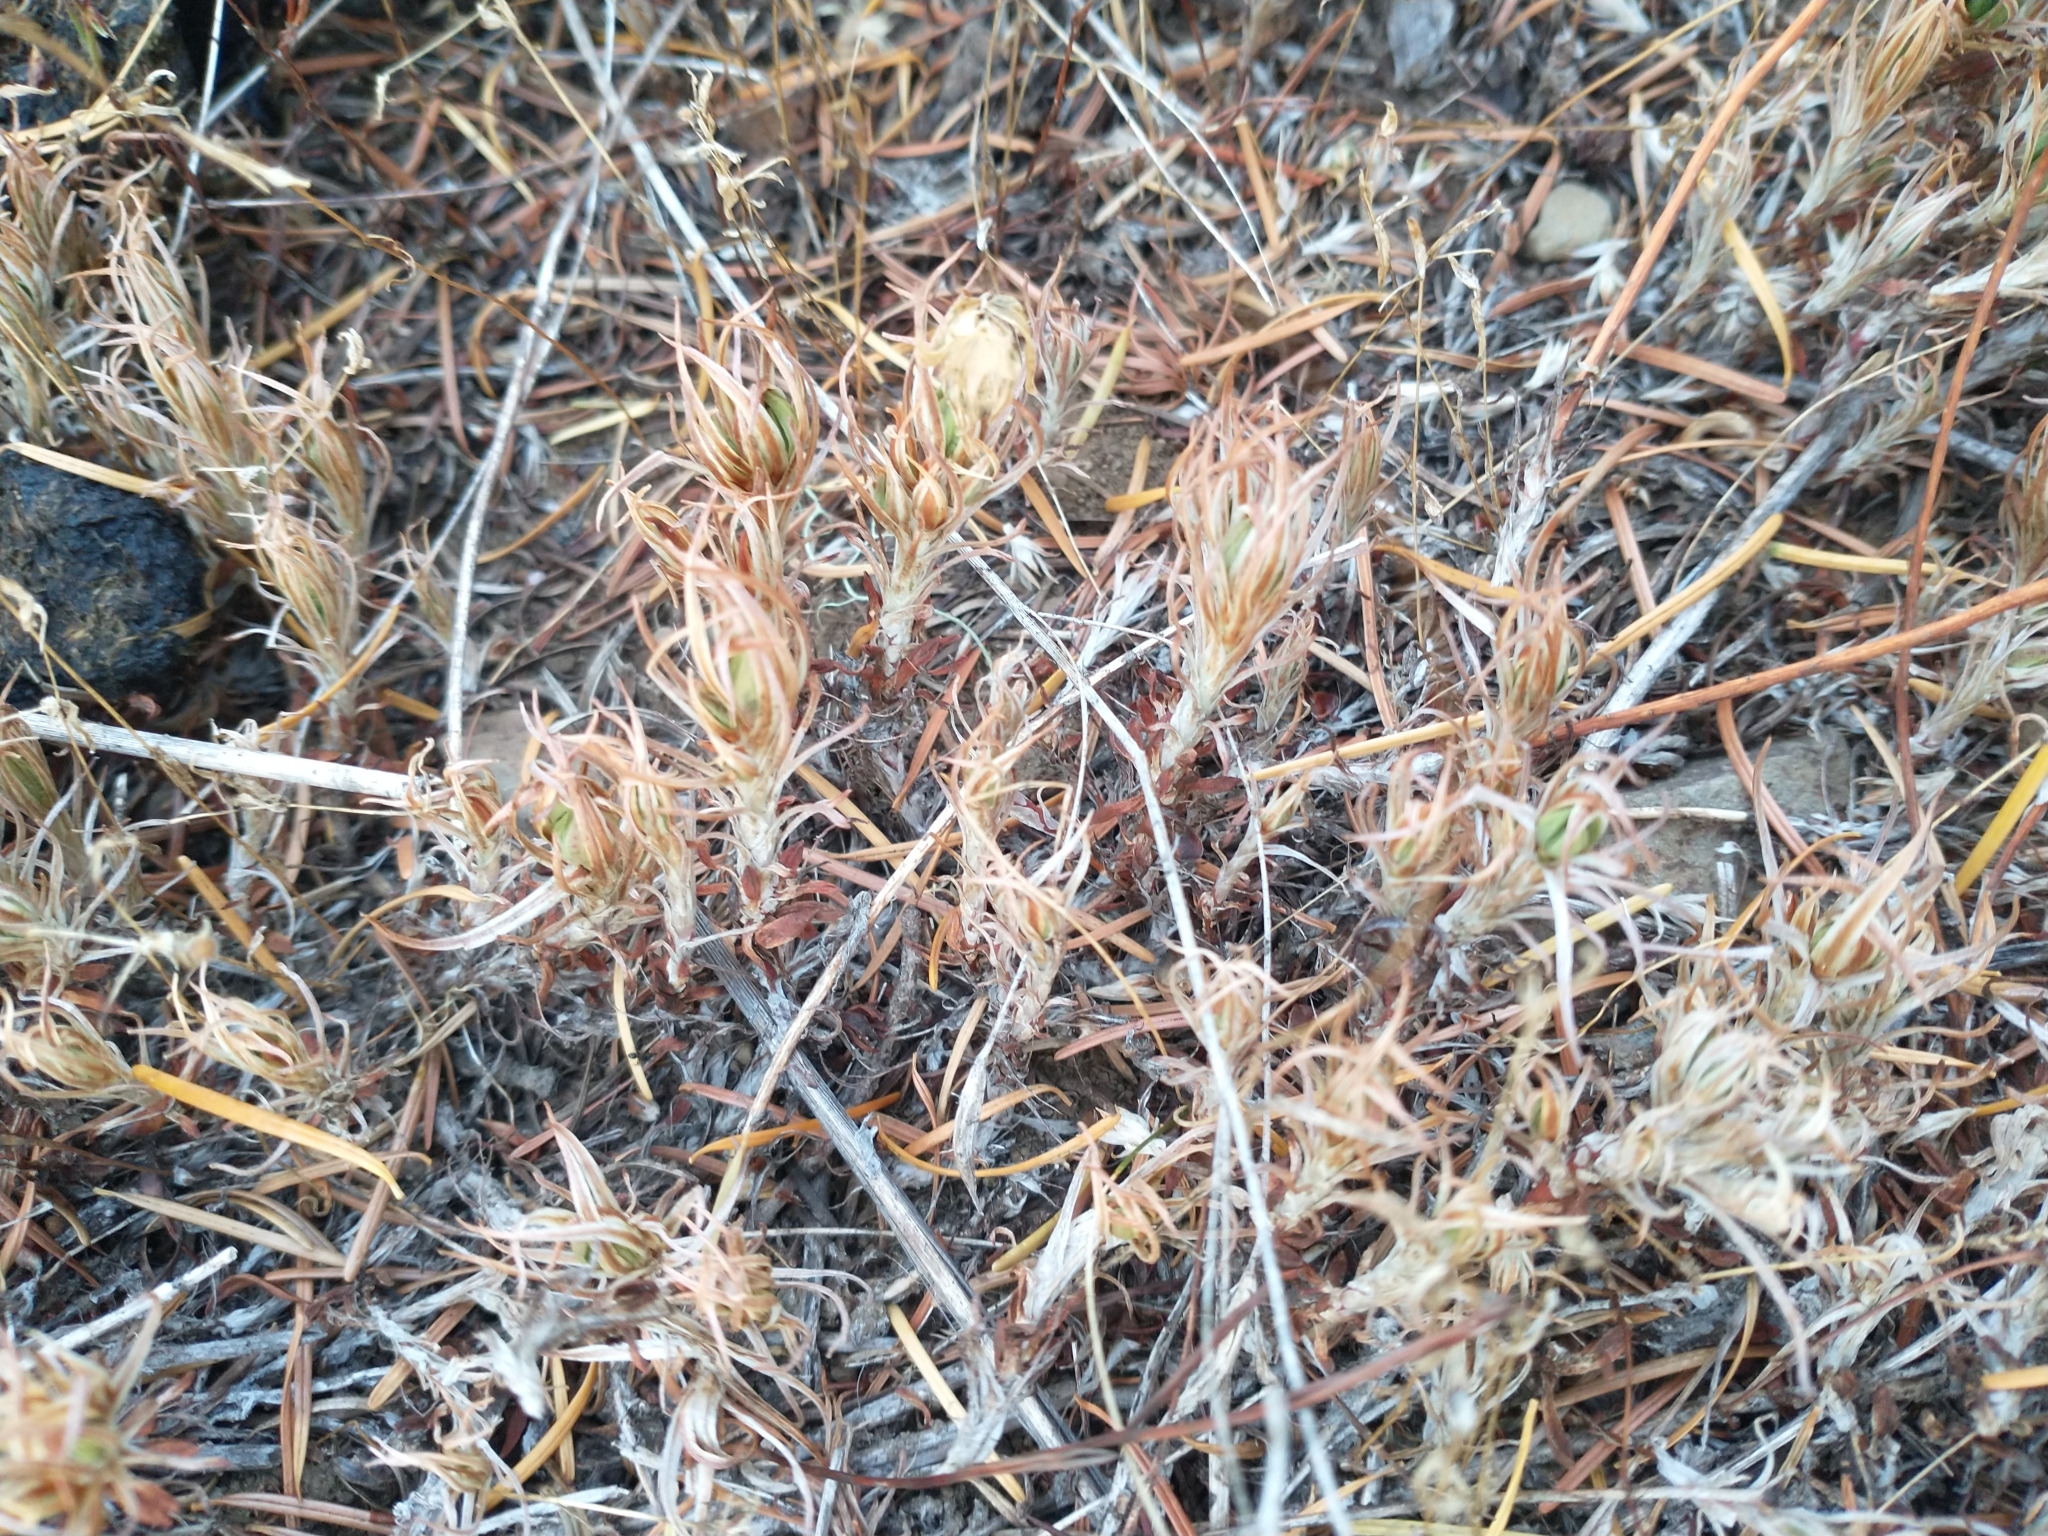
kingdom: Plantae
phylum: Tracheophyta
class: Magnoliopsida
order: Saxifragales
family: Crassulaceae
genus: Sedum
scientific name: Sedum stenopetalum
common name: Narrow-petaled stonecrop
